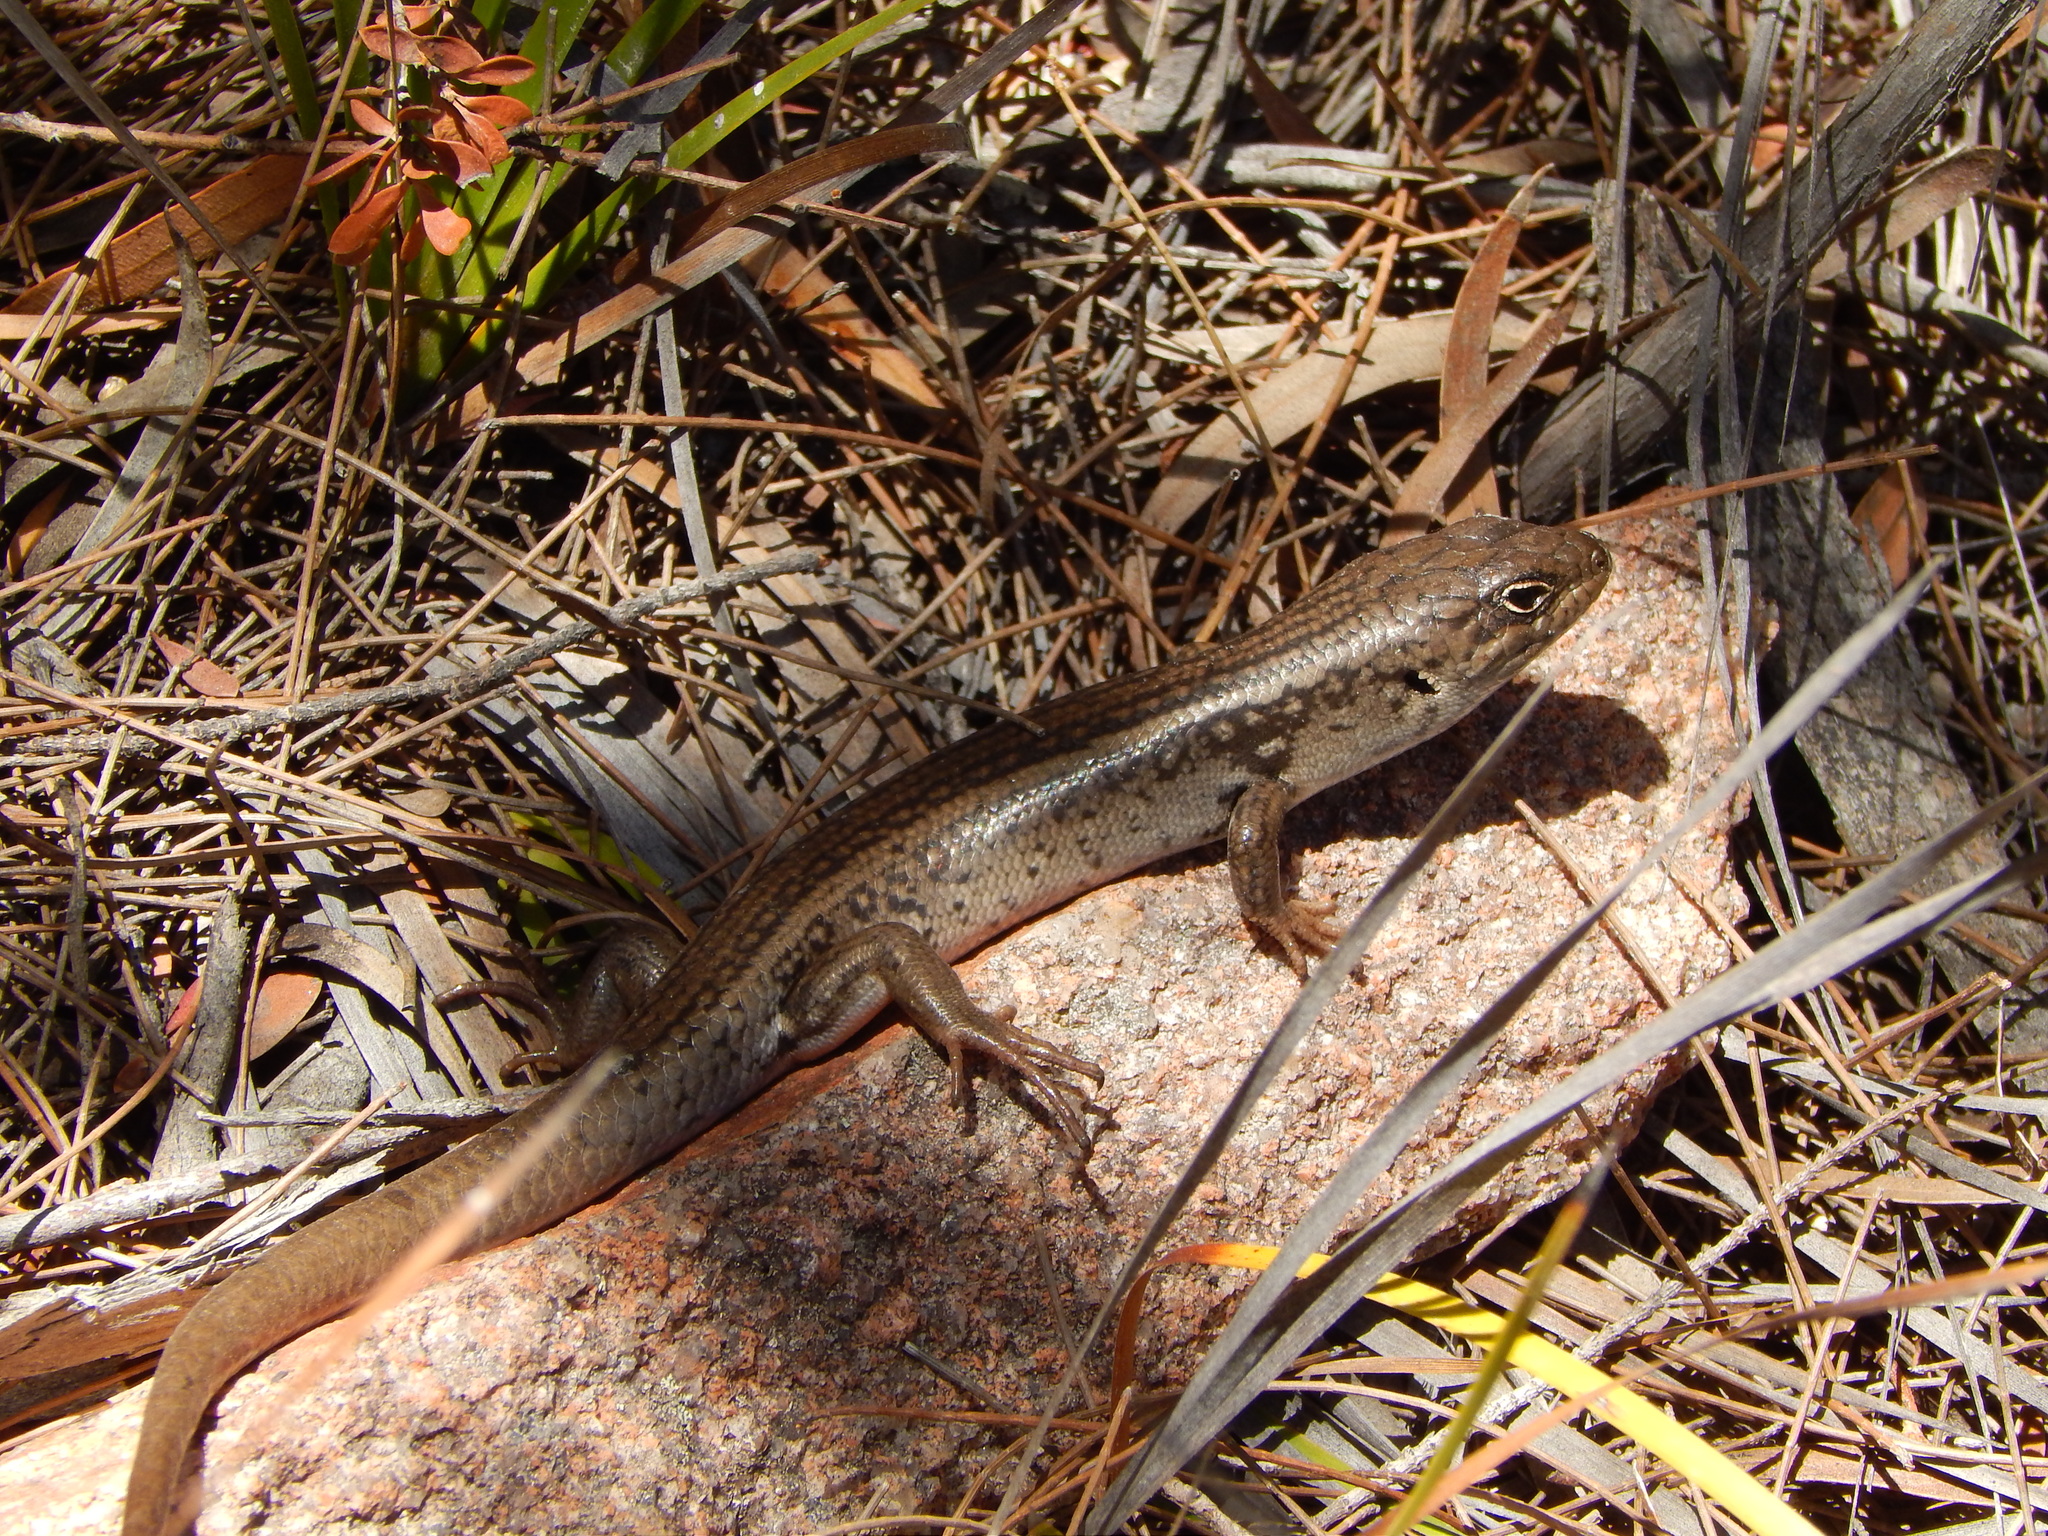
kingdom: Animalia
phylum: Chordata
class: Squamata
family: Scincidae
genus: Liopholis
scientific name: Liopholis whitii
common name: White's rock-skink
